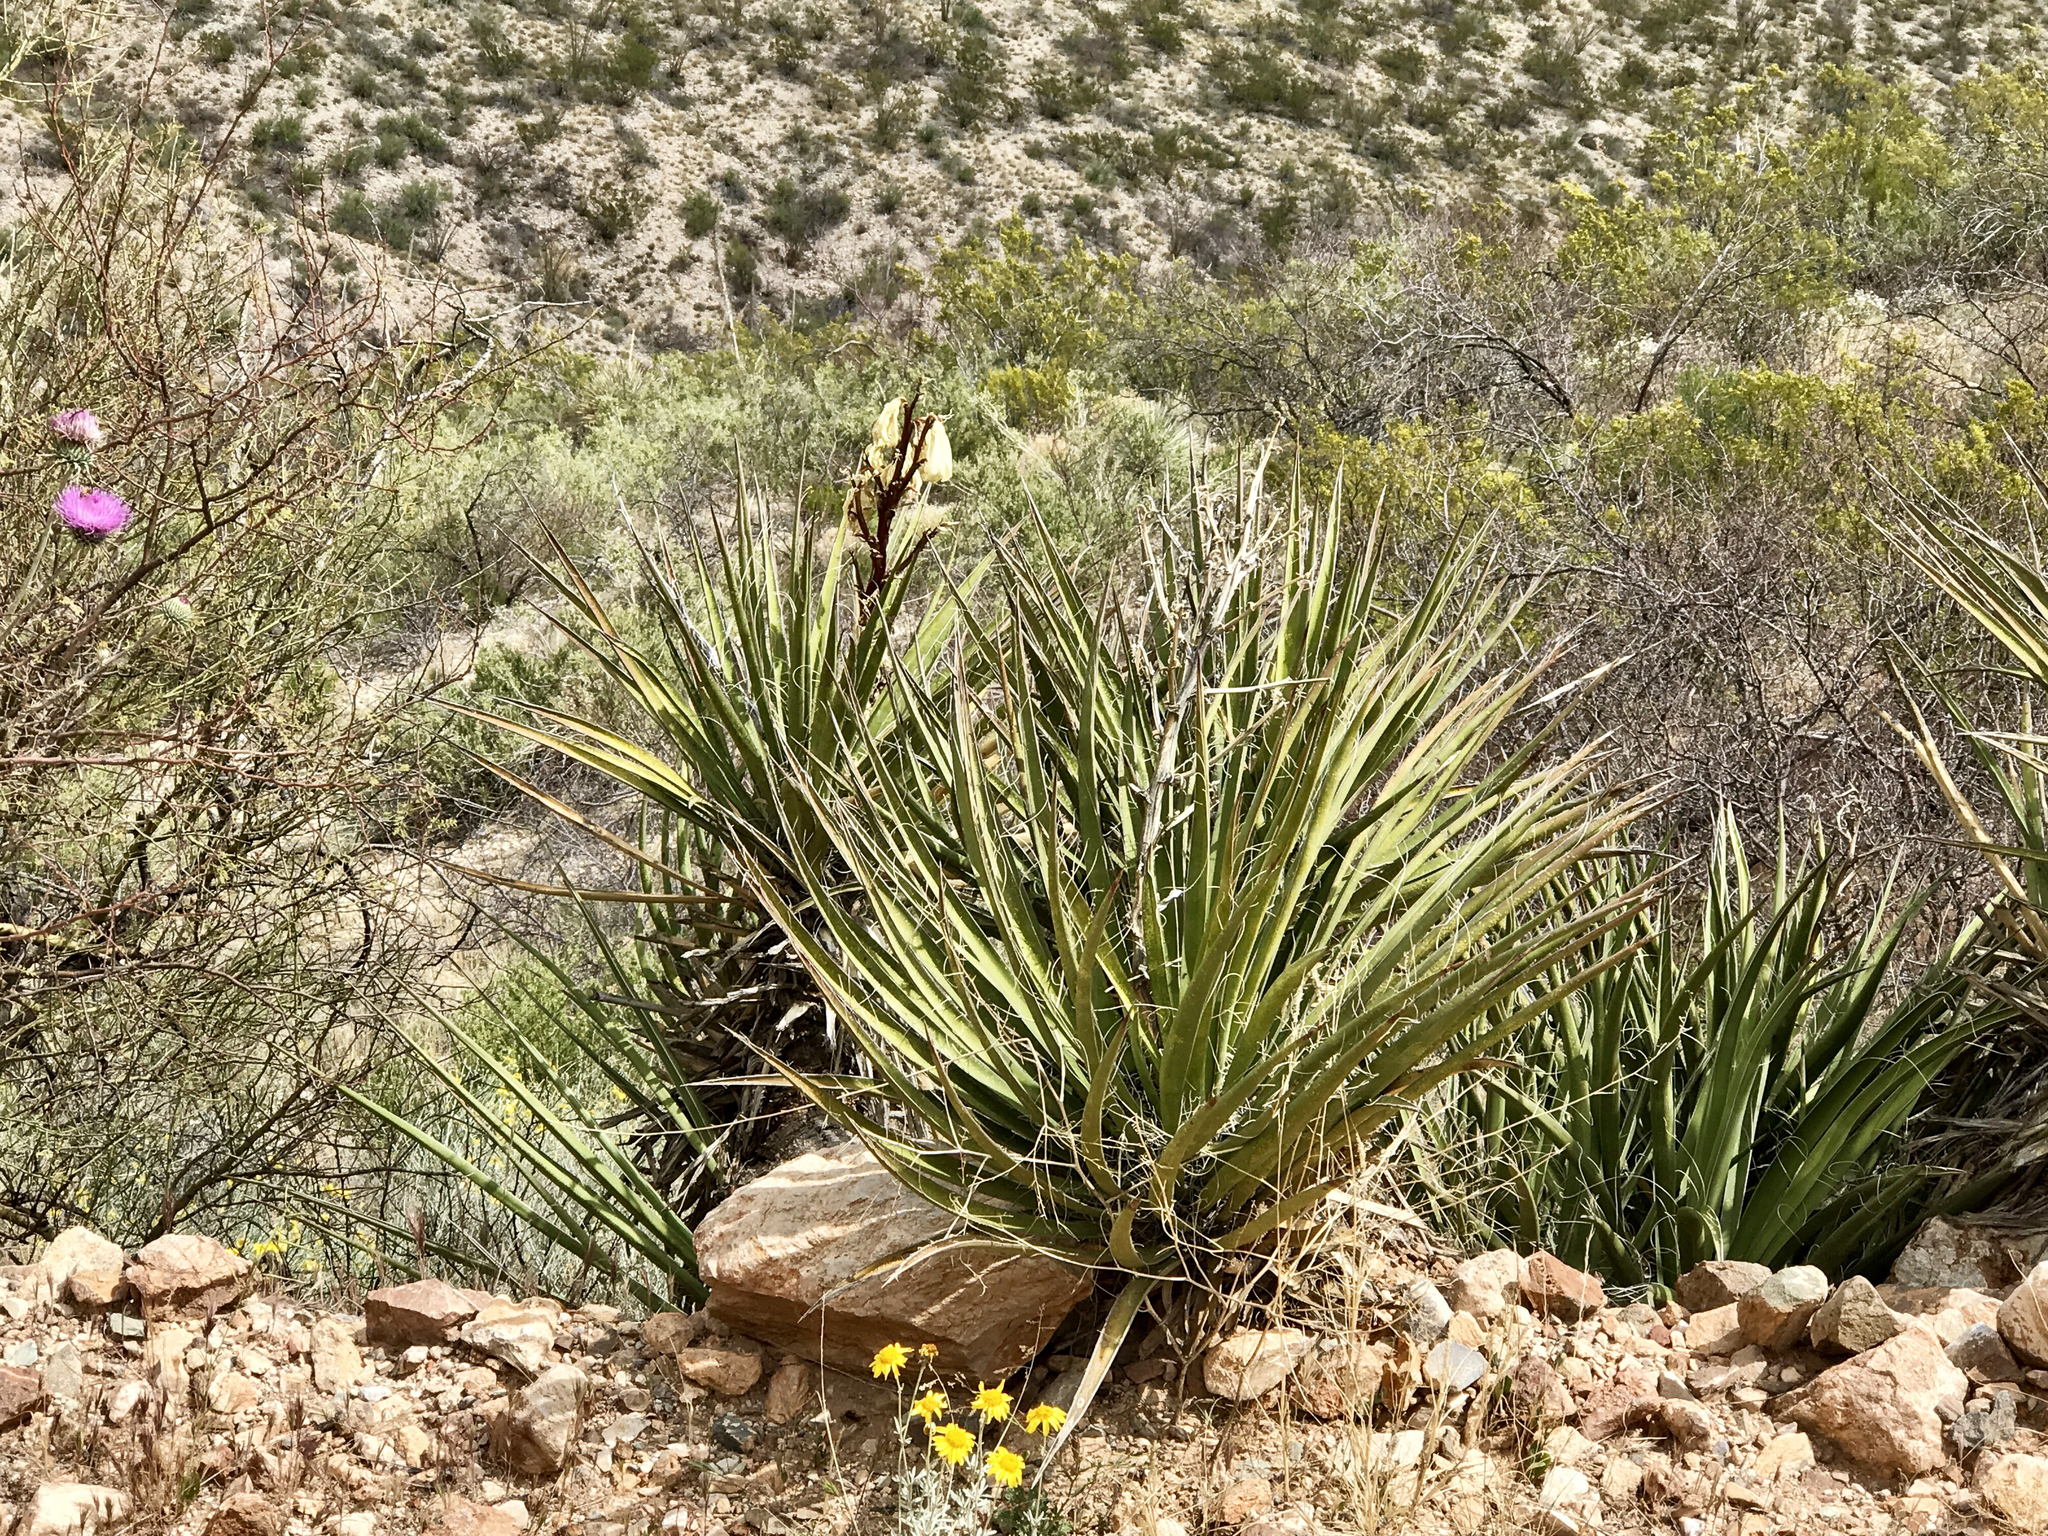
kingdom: Plantae
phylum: Tracheophyta
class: Liliopsida
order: Asparagales
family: Asparagaceae
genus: Yucca
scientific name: Yucca baccata
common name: Banana yucca
